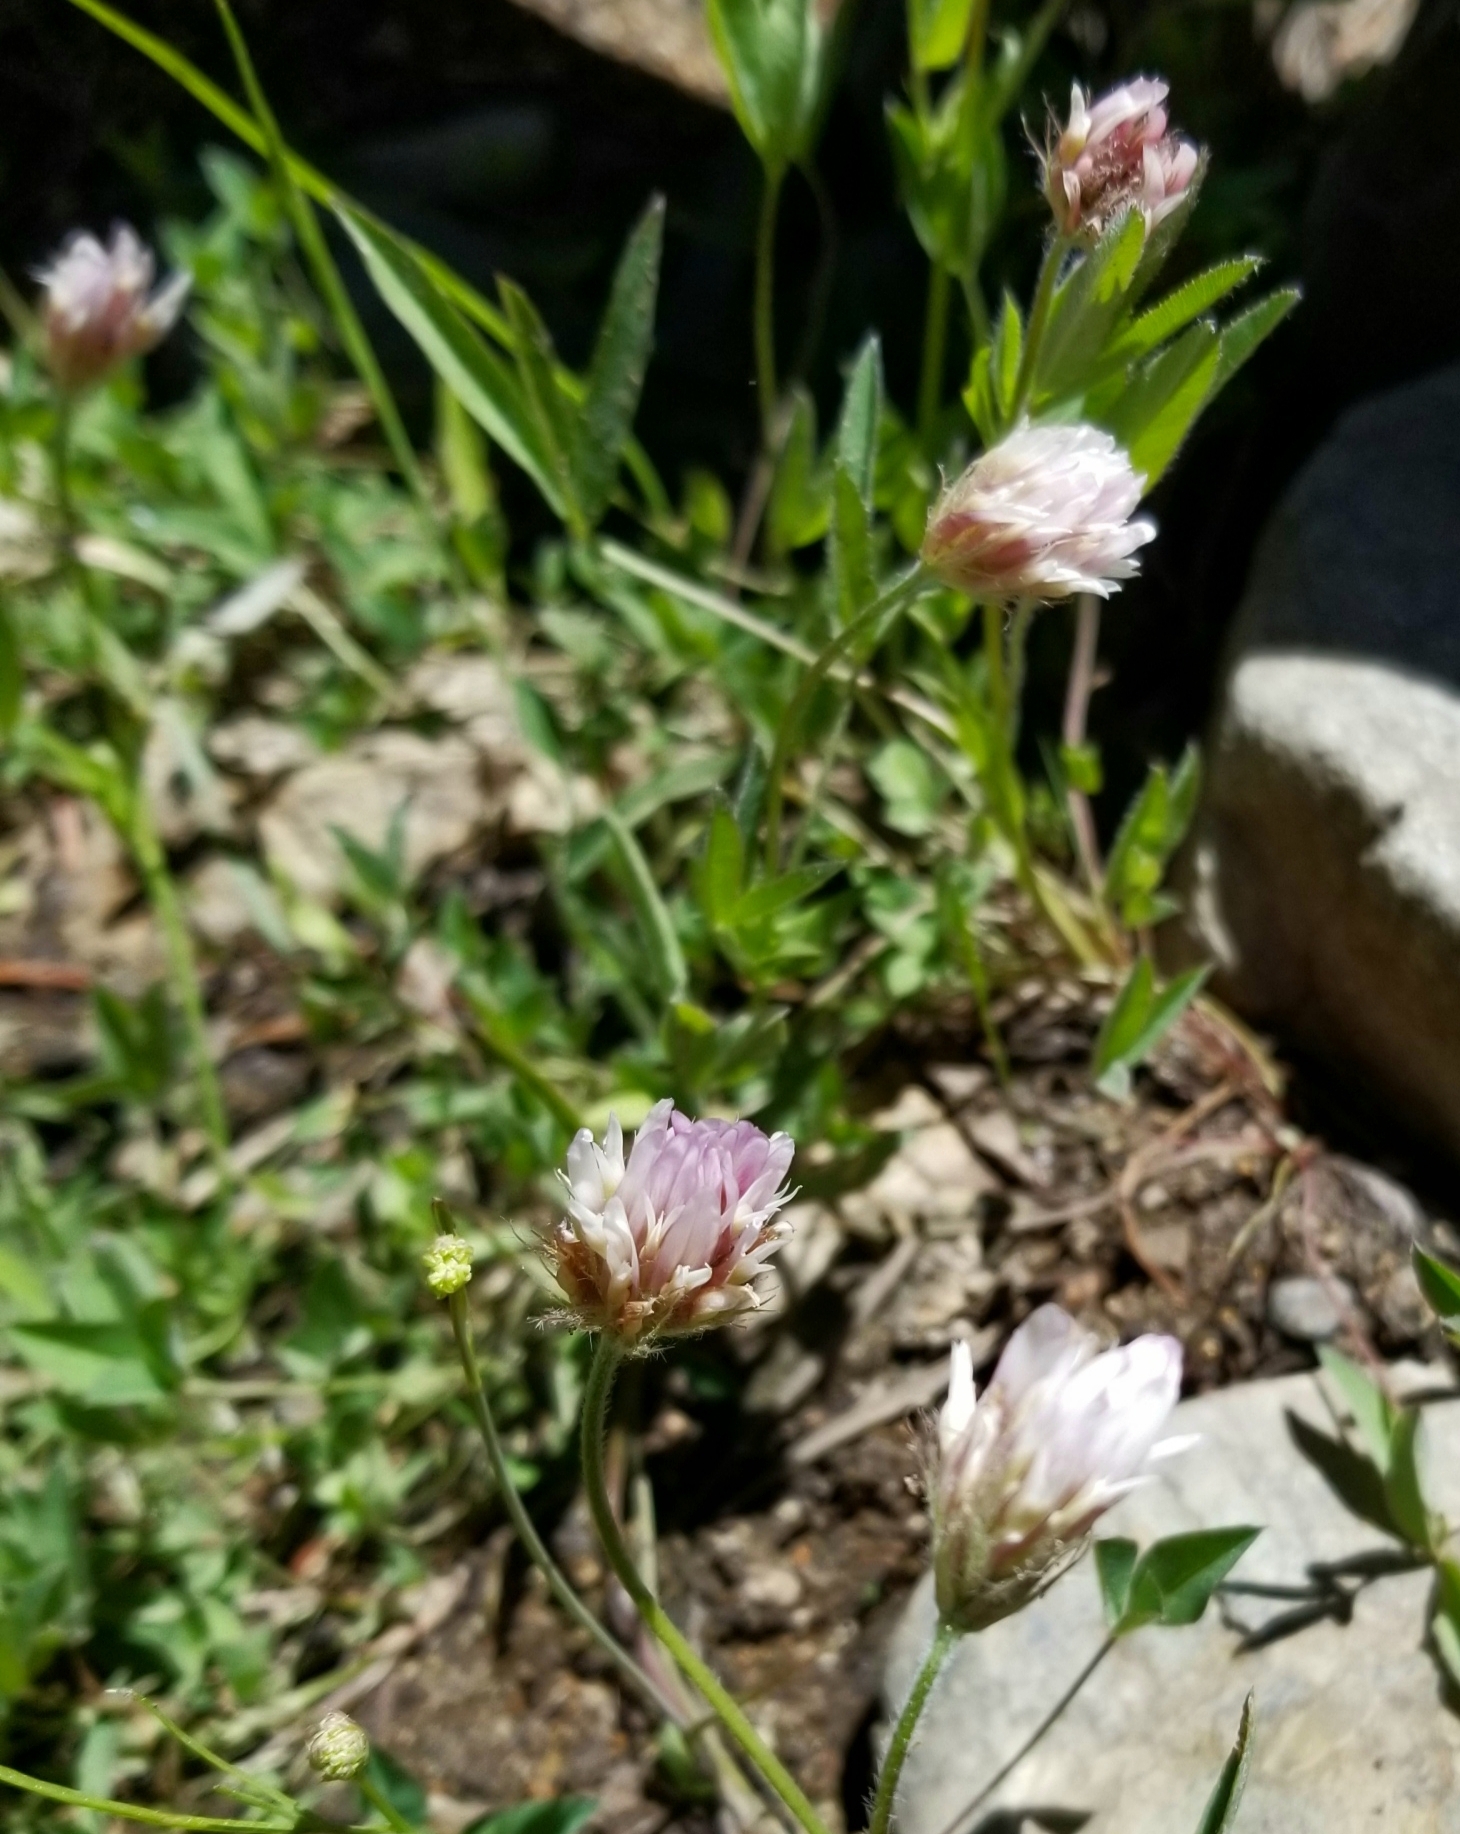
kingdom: Plantae
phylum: Tracheophyta
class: Magnoliopsida
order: Fabales
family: Fabaceae
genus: Trifolium
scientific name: Trifolium longipes
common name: Long-stalk clover
